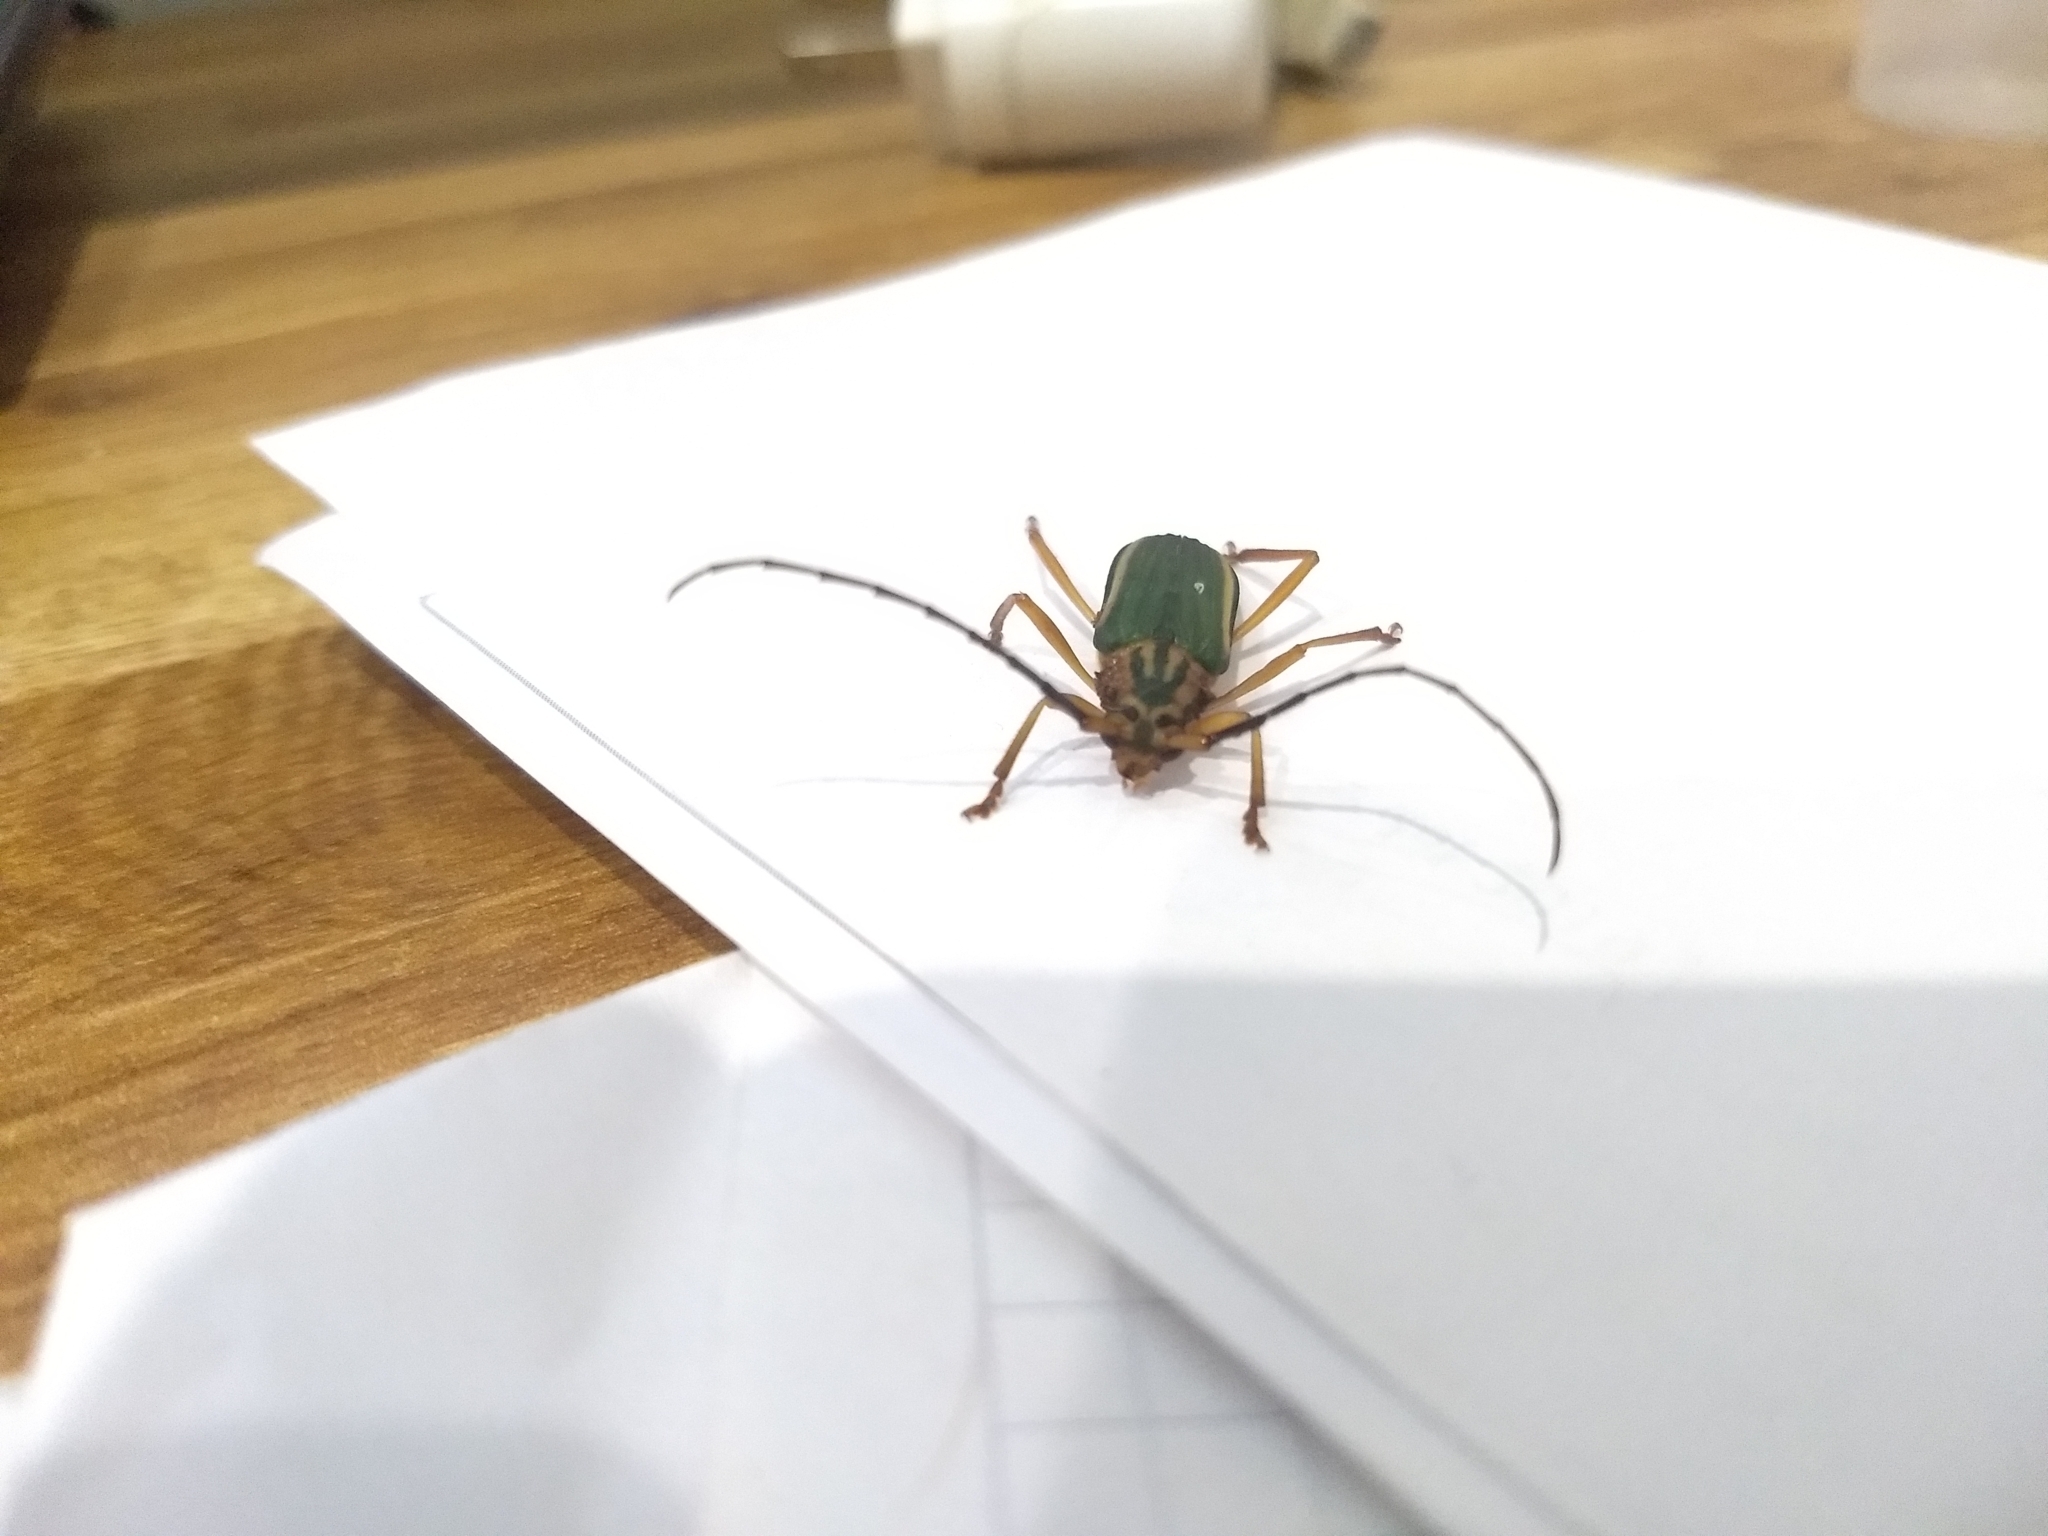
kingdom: Animalia
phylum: Arthropoda
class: Insecta
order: Coleoptera
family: Cerambycidae
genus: Chlorida
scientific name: Chlorida festiva
